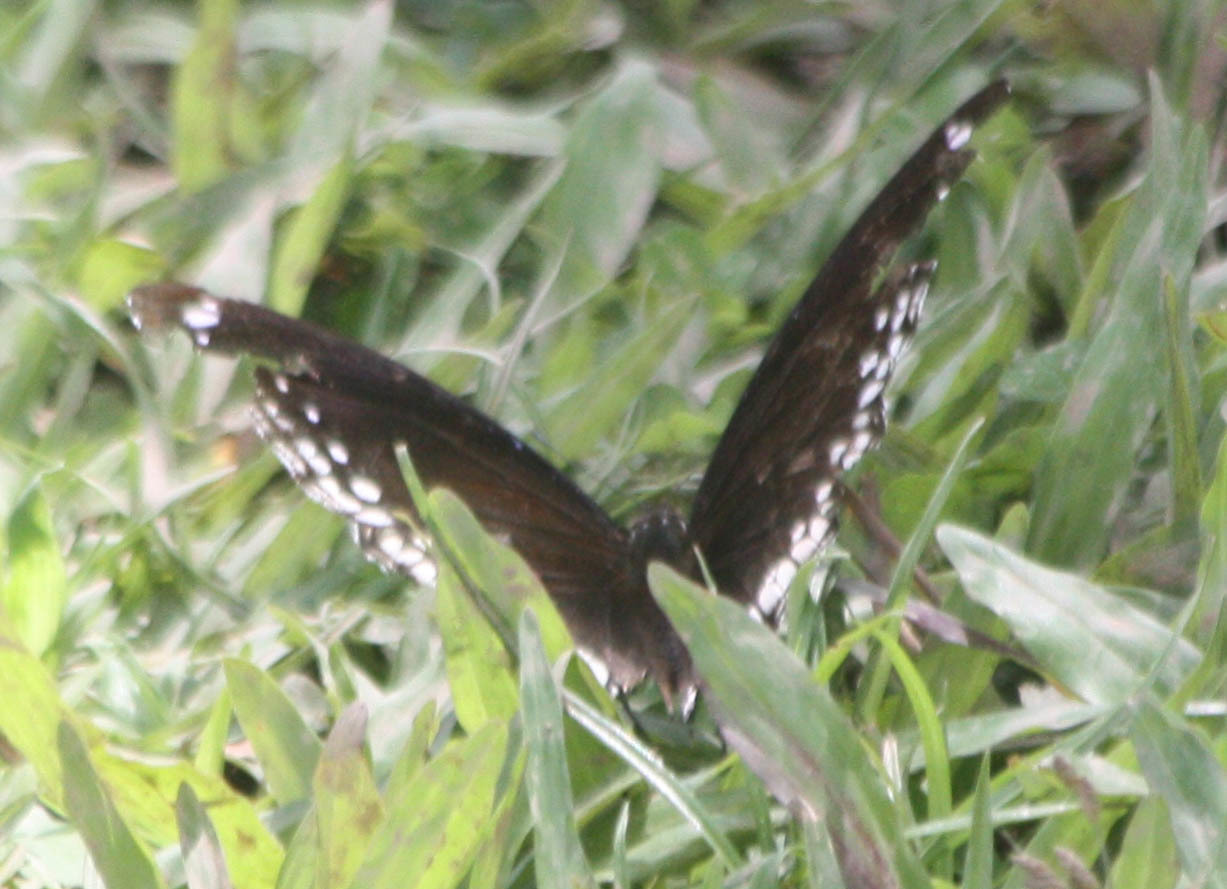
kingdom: Animalia
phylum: Arthropoda
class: Insecta
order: Lepidoptera
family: Nymphalidae
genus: Hypolimnas
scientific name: Hypolimnas bolina
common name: Great eggfly
